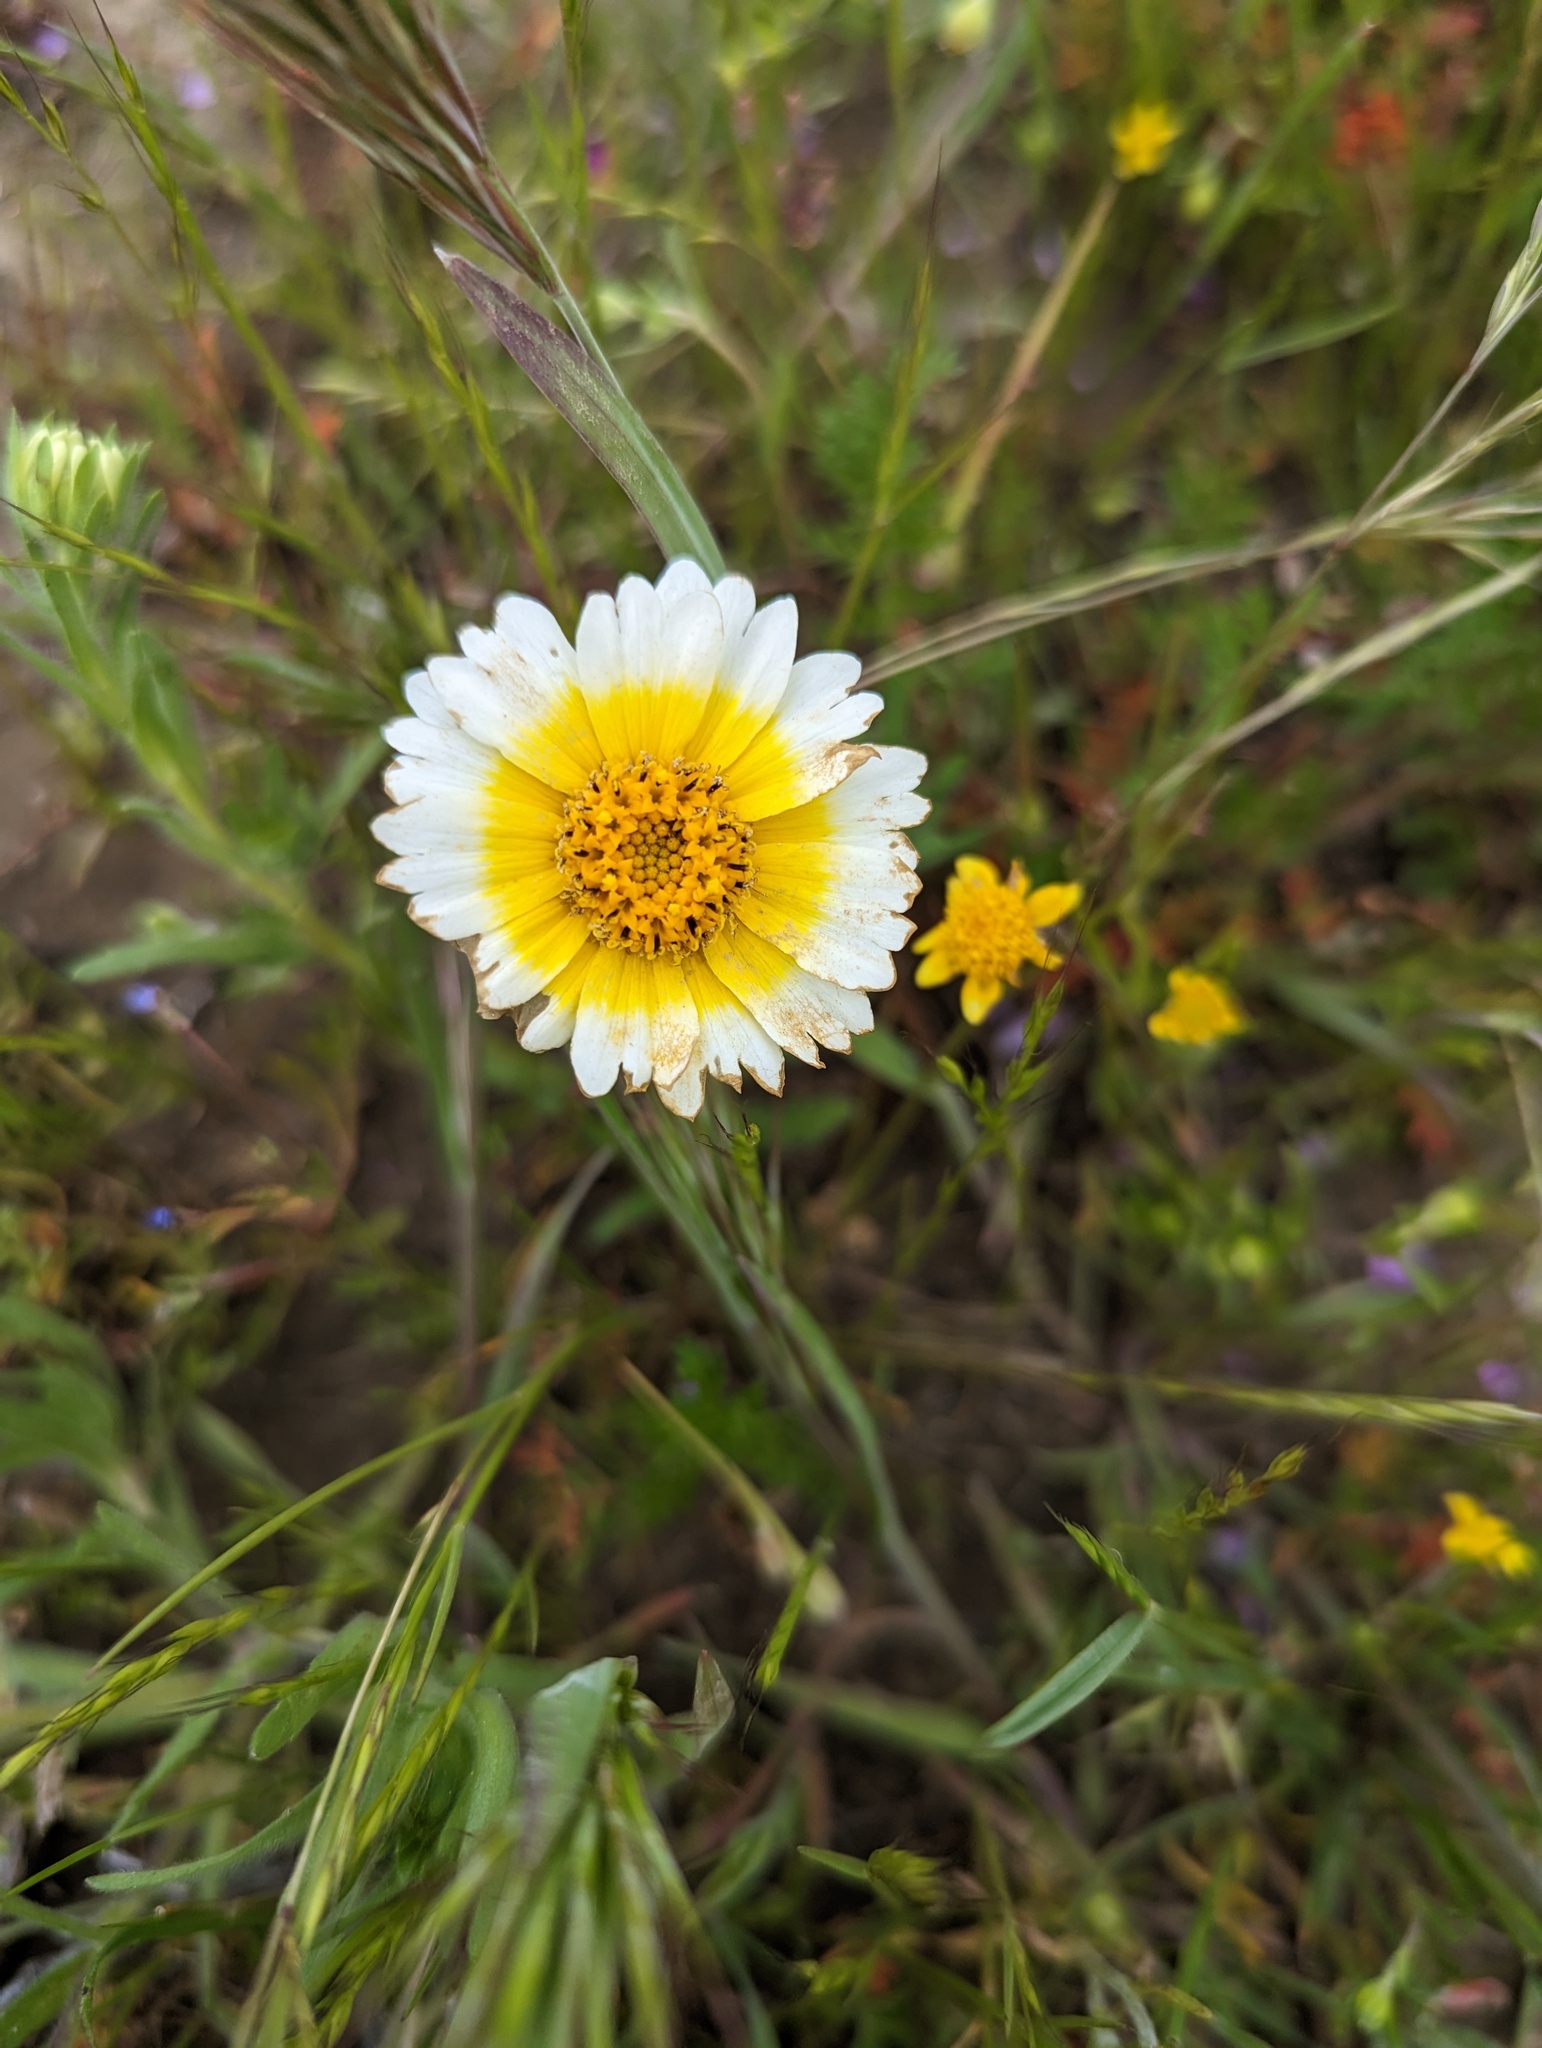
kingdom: Plantae
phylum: Tracheophyta
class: Magnoliopsida
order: Asterales
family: Asteraceae
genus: Layia
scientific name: Layia platyglossa
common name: Tidy-tips
